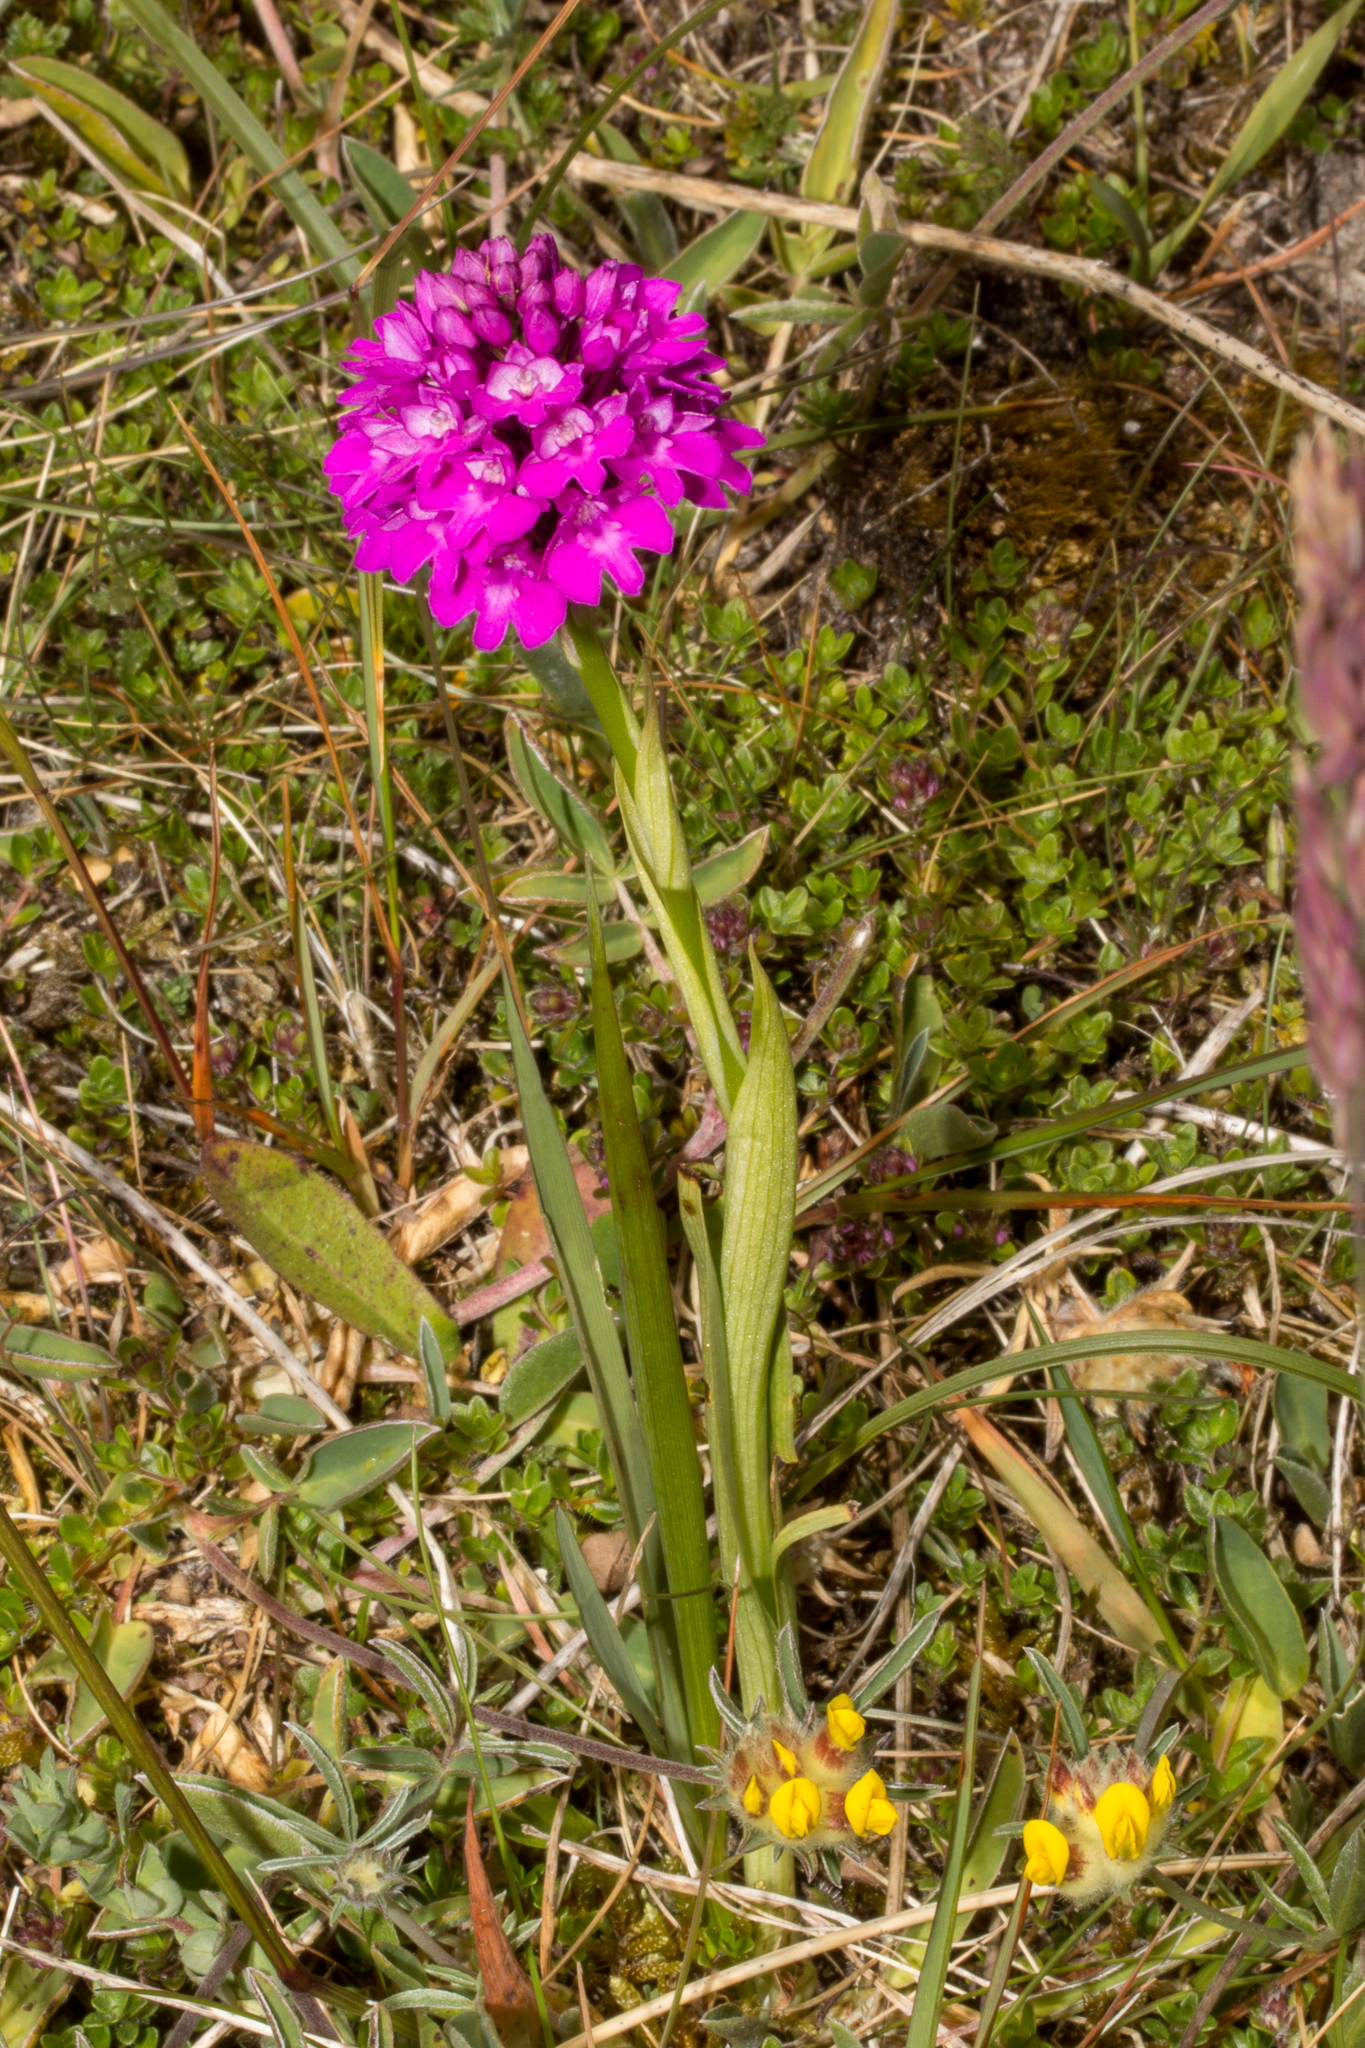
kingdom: Plantae
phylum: Tracheophyta
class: Liliopsida
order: Asparagales
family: Orchidaceae
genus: Anacamptis
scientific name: Anacamptis pyramidalis
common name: Pyramidal orchid
